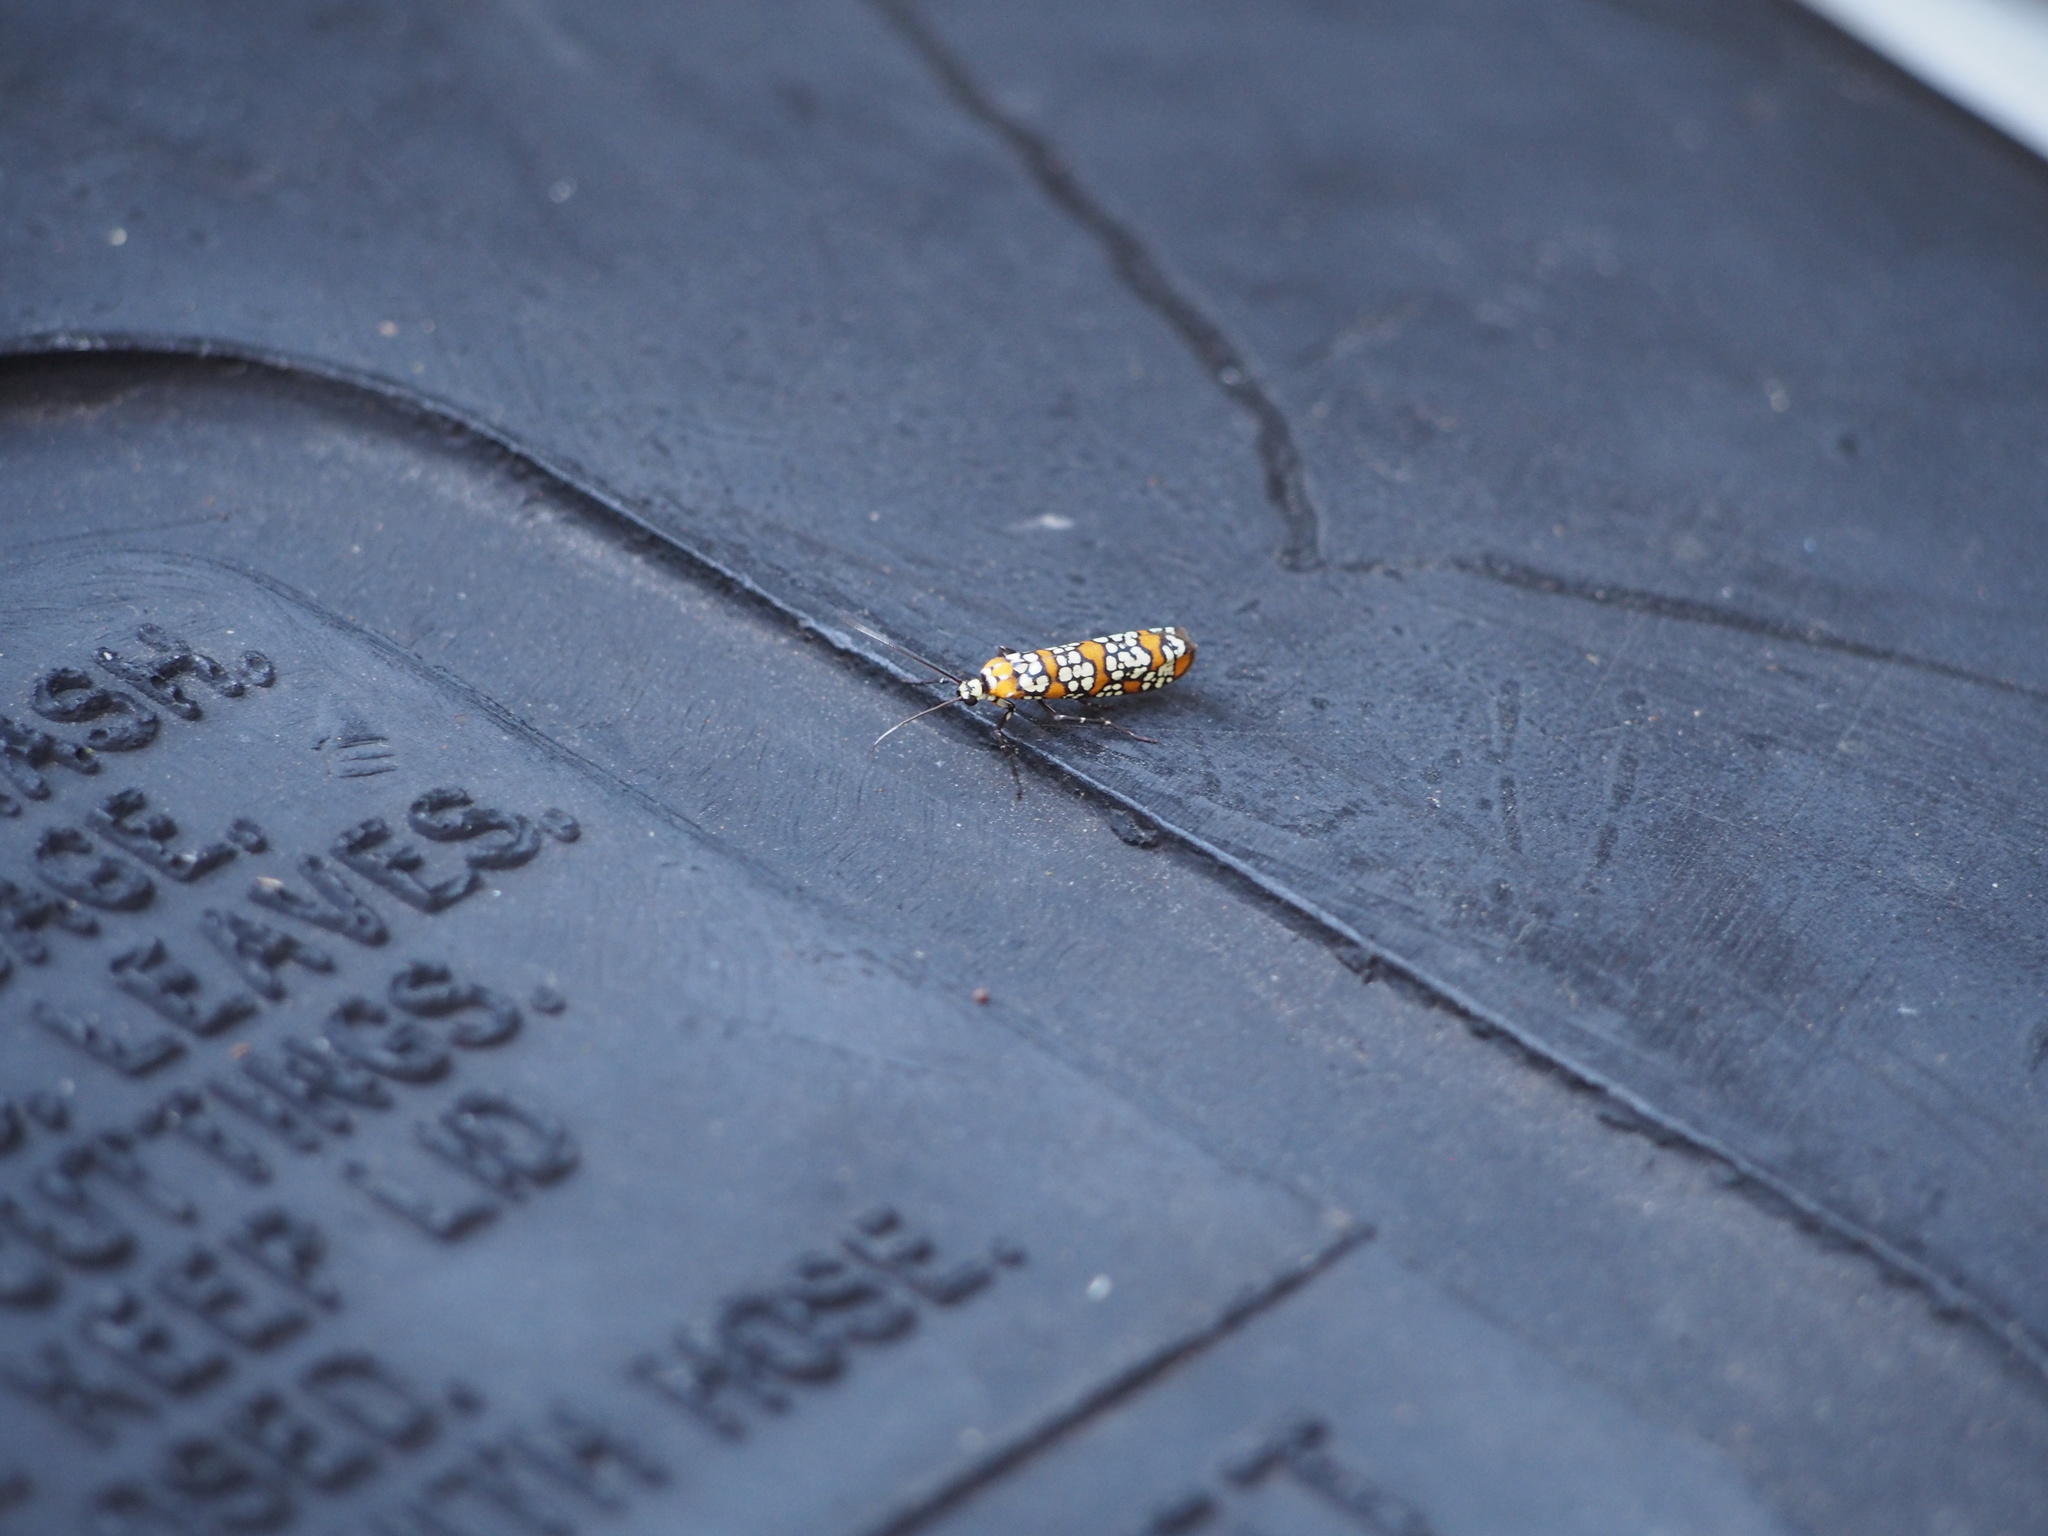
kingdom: Animalia
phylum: Arthropoda
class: Insecta
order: Lepidoptera
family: Attevidae
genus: Atteva
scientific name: Atteva punctella
